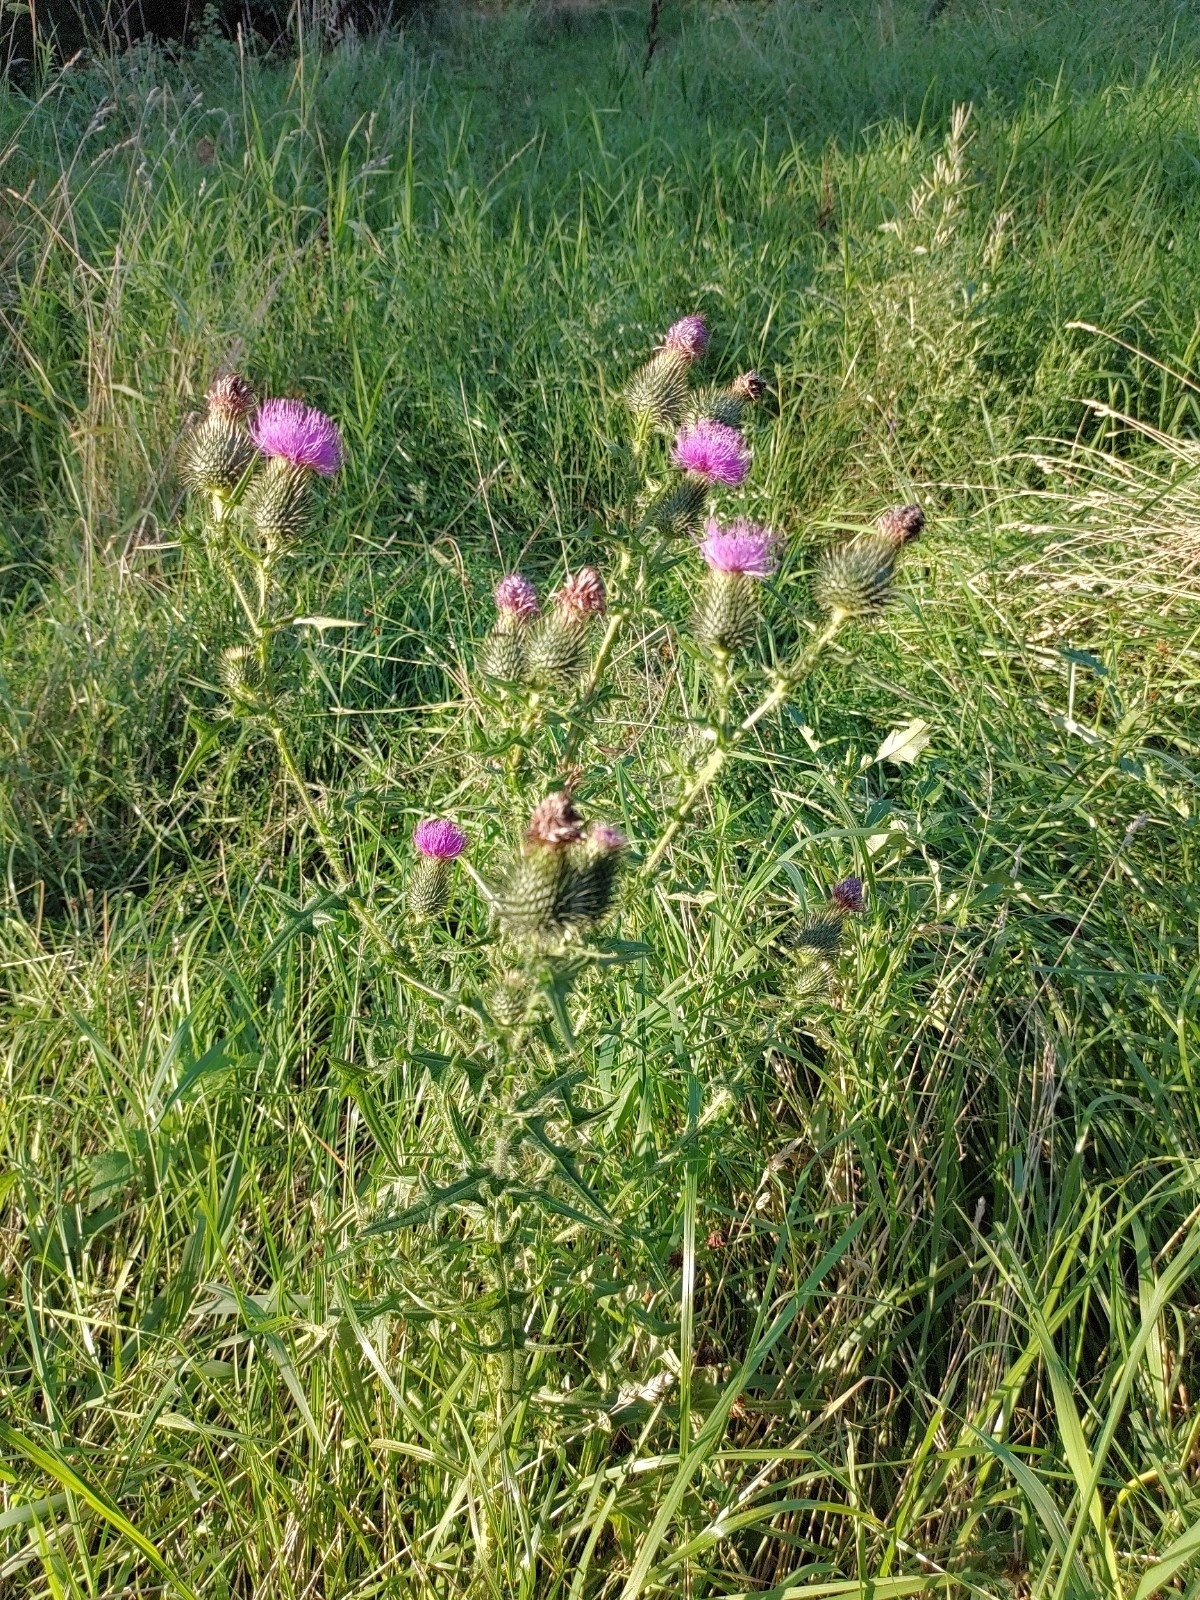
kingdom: Plantae
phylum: Tracheophyta
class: Magnoliopsida
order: Asterales
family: Asteraceae
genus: Cirsium
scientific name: Cirsium vulgare
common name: Bull thistle
